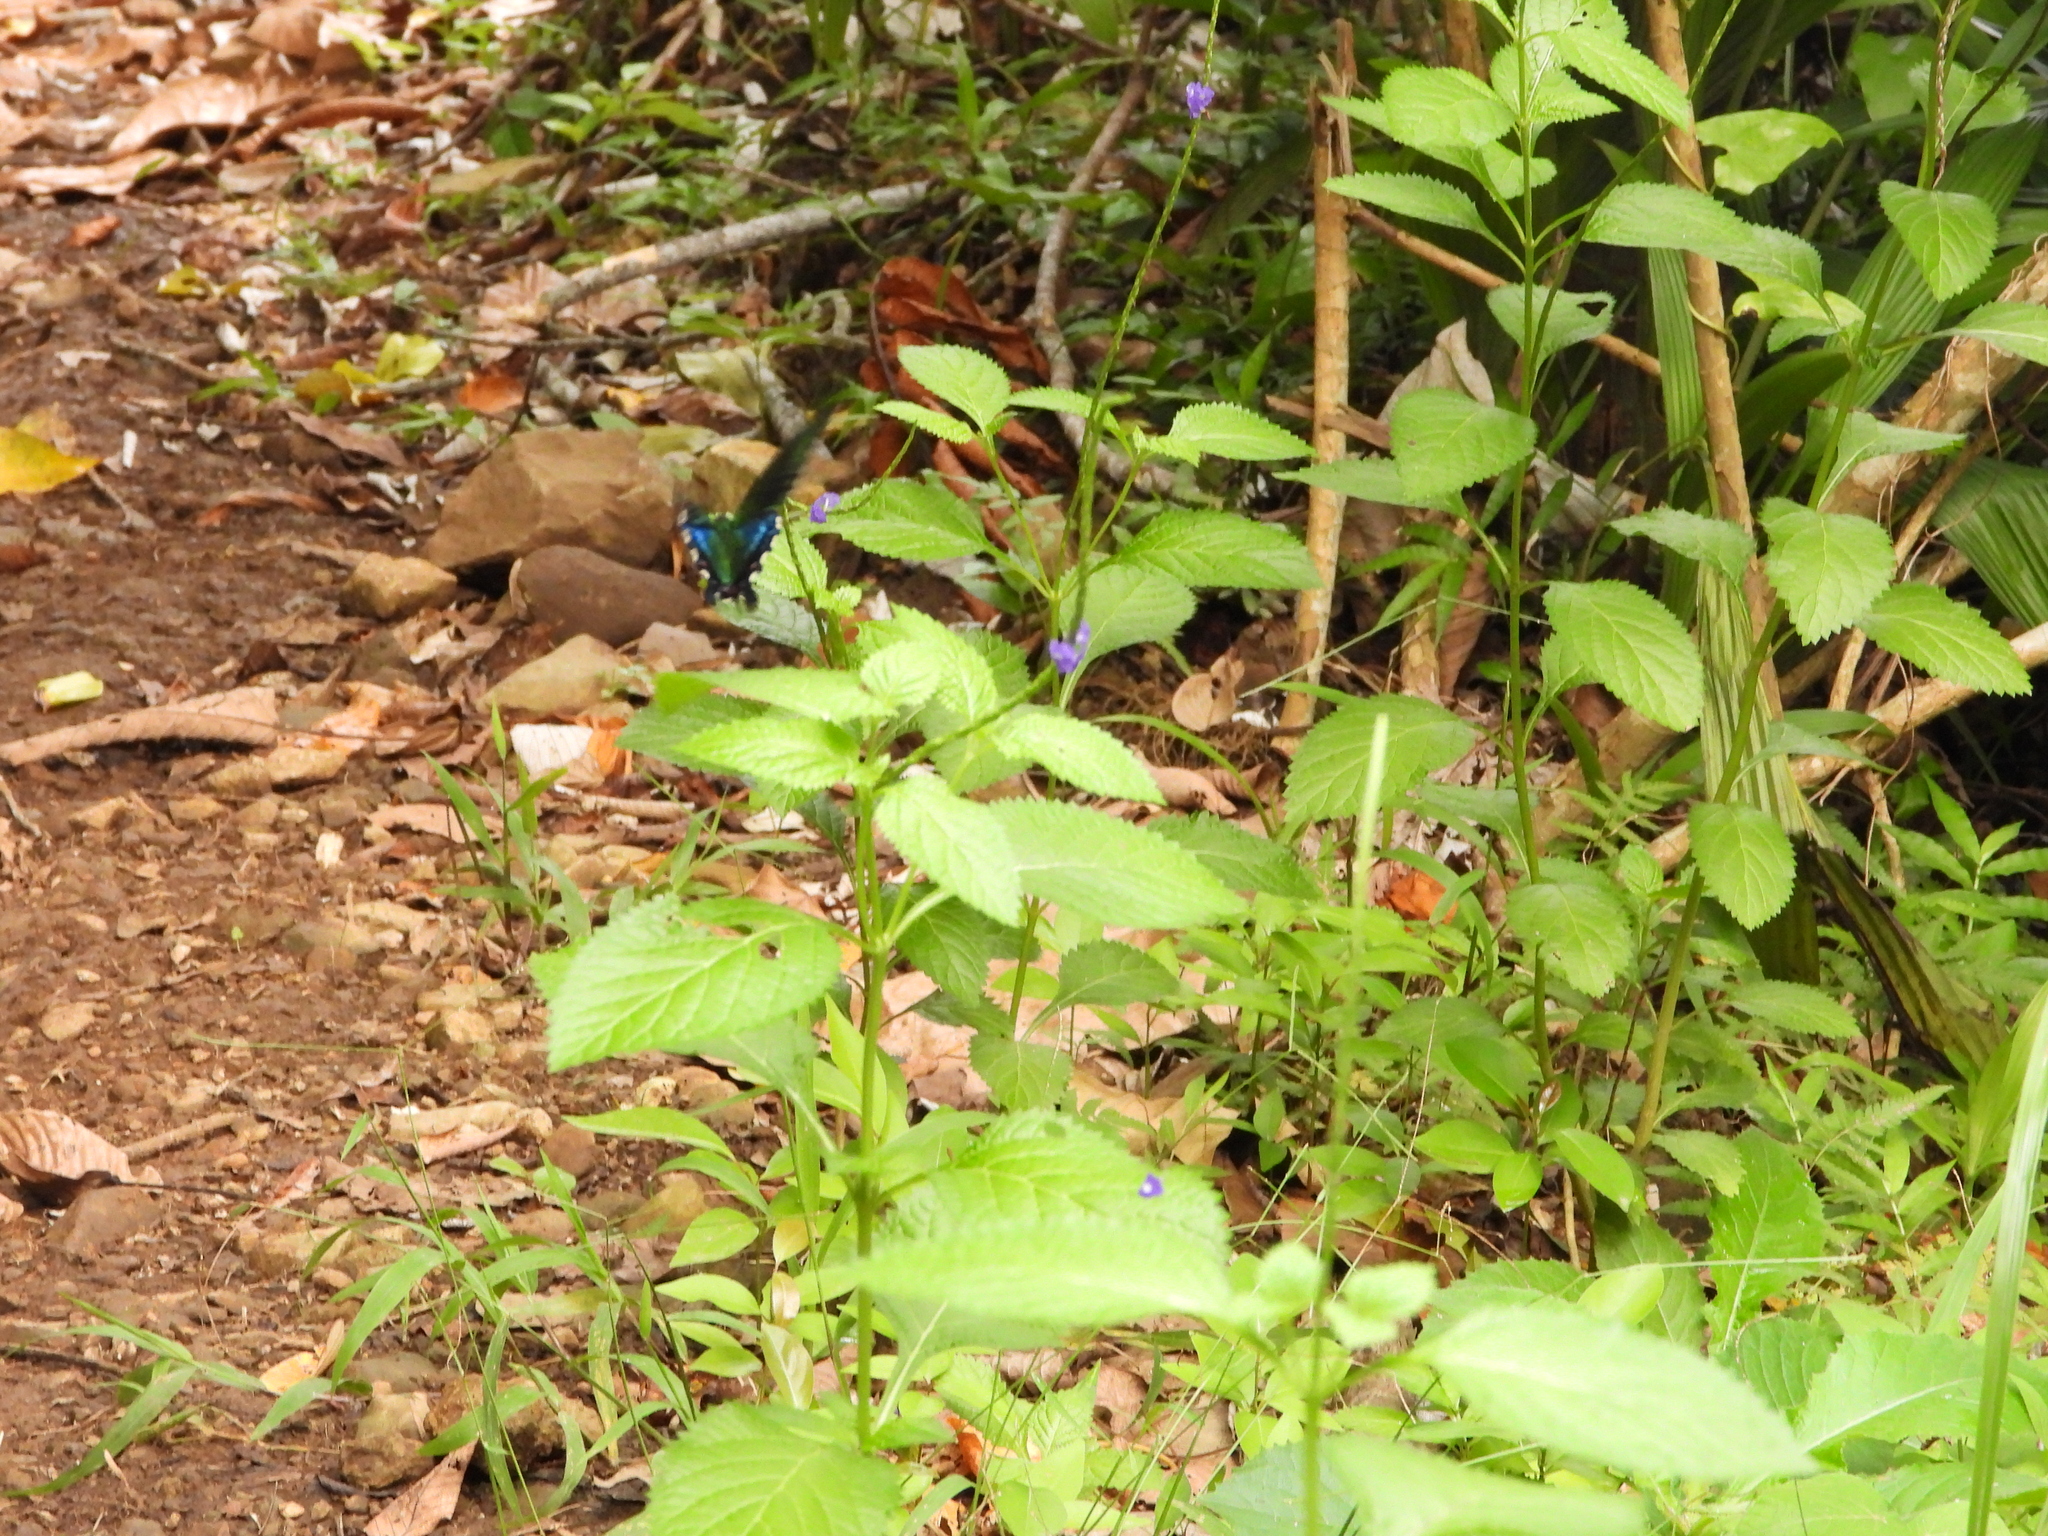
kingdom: Animalia
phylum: Arthropoda
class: Insecta
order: Lepidoptera
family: Papilionidae
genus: Papilio
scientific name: Papilio bianor
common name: Common peacock
